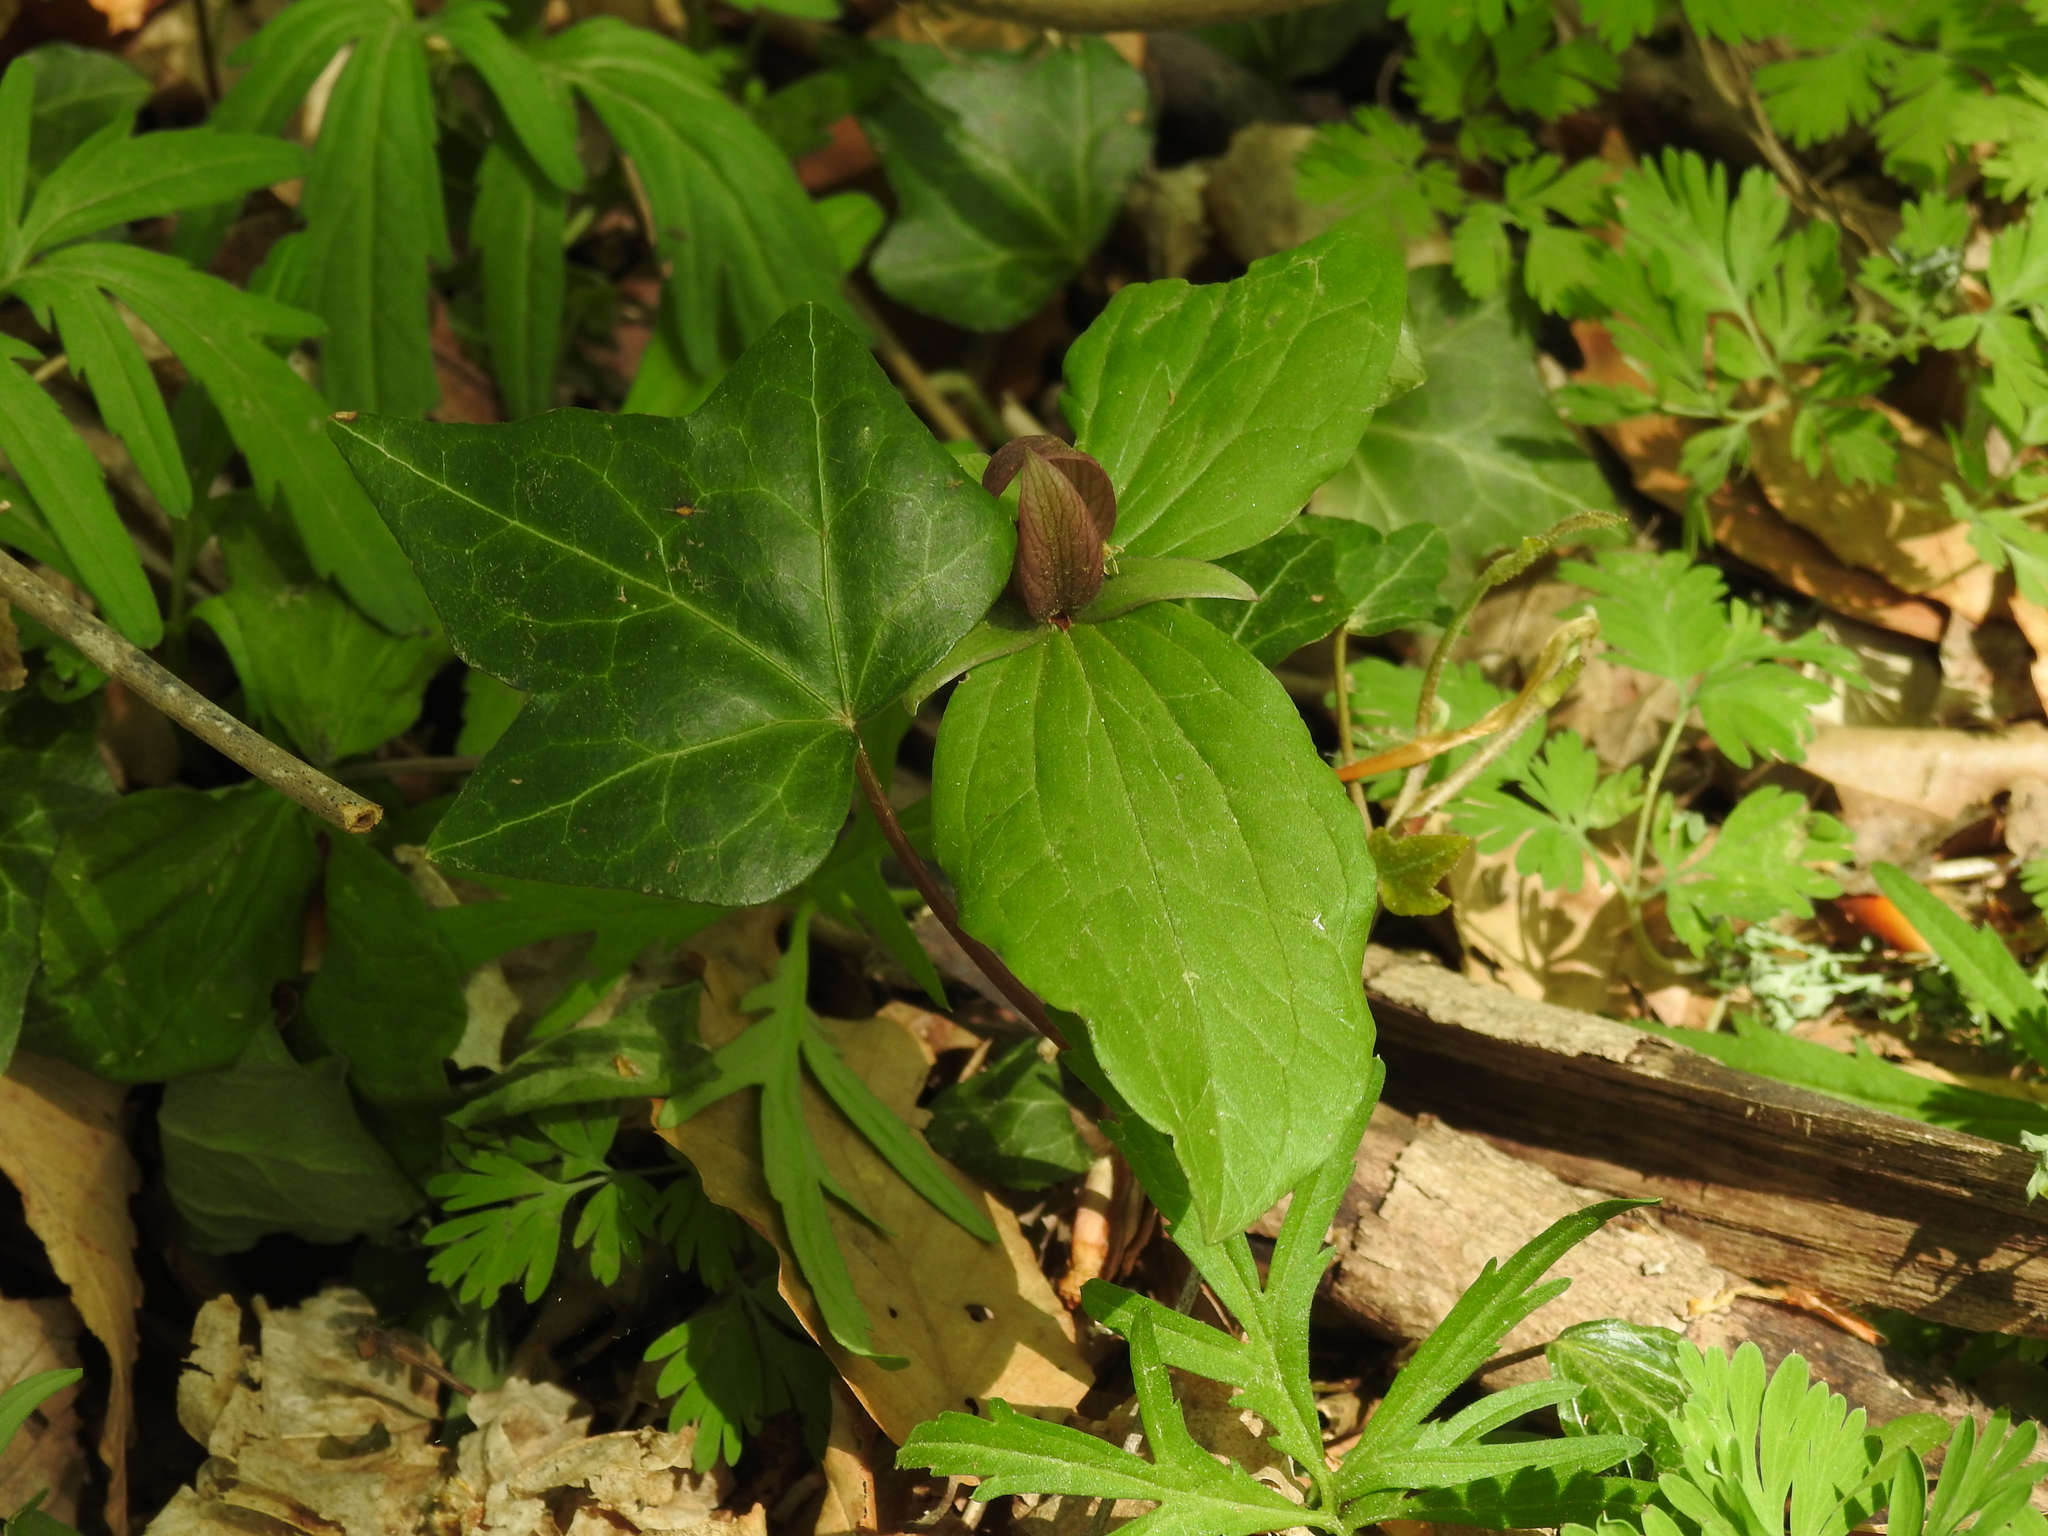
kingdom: Plantae
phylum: Tracheophyta
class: Liliopsida
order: Liliales
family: Melanthiaceae
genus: Trillium
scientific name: Trillium sessile
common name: Sessile trillium
